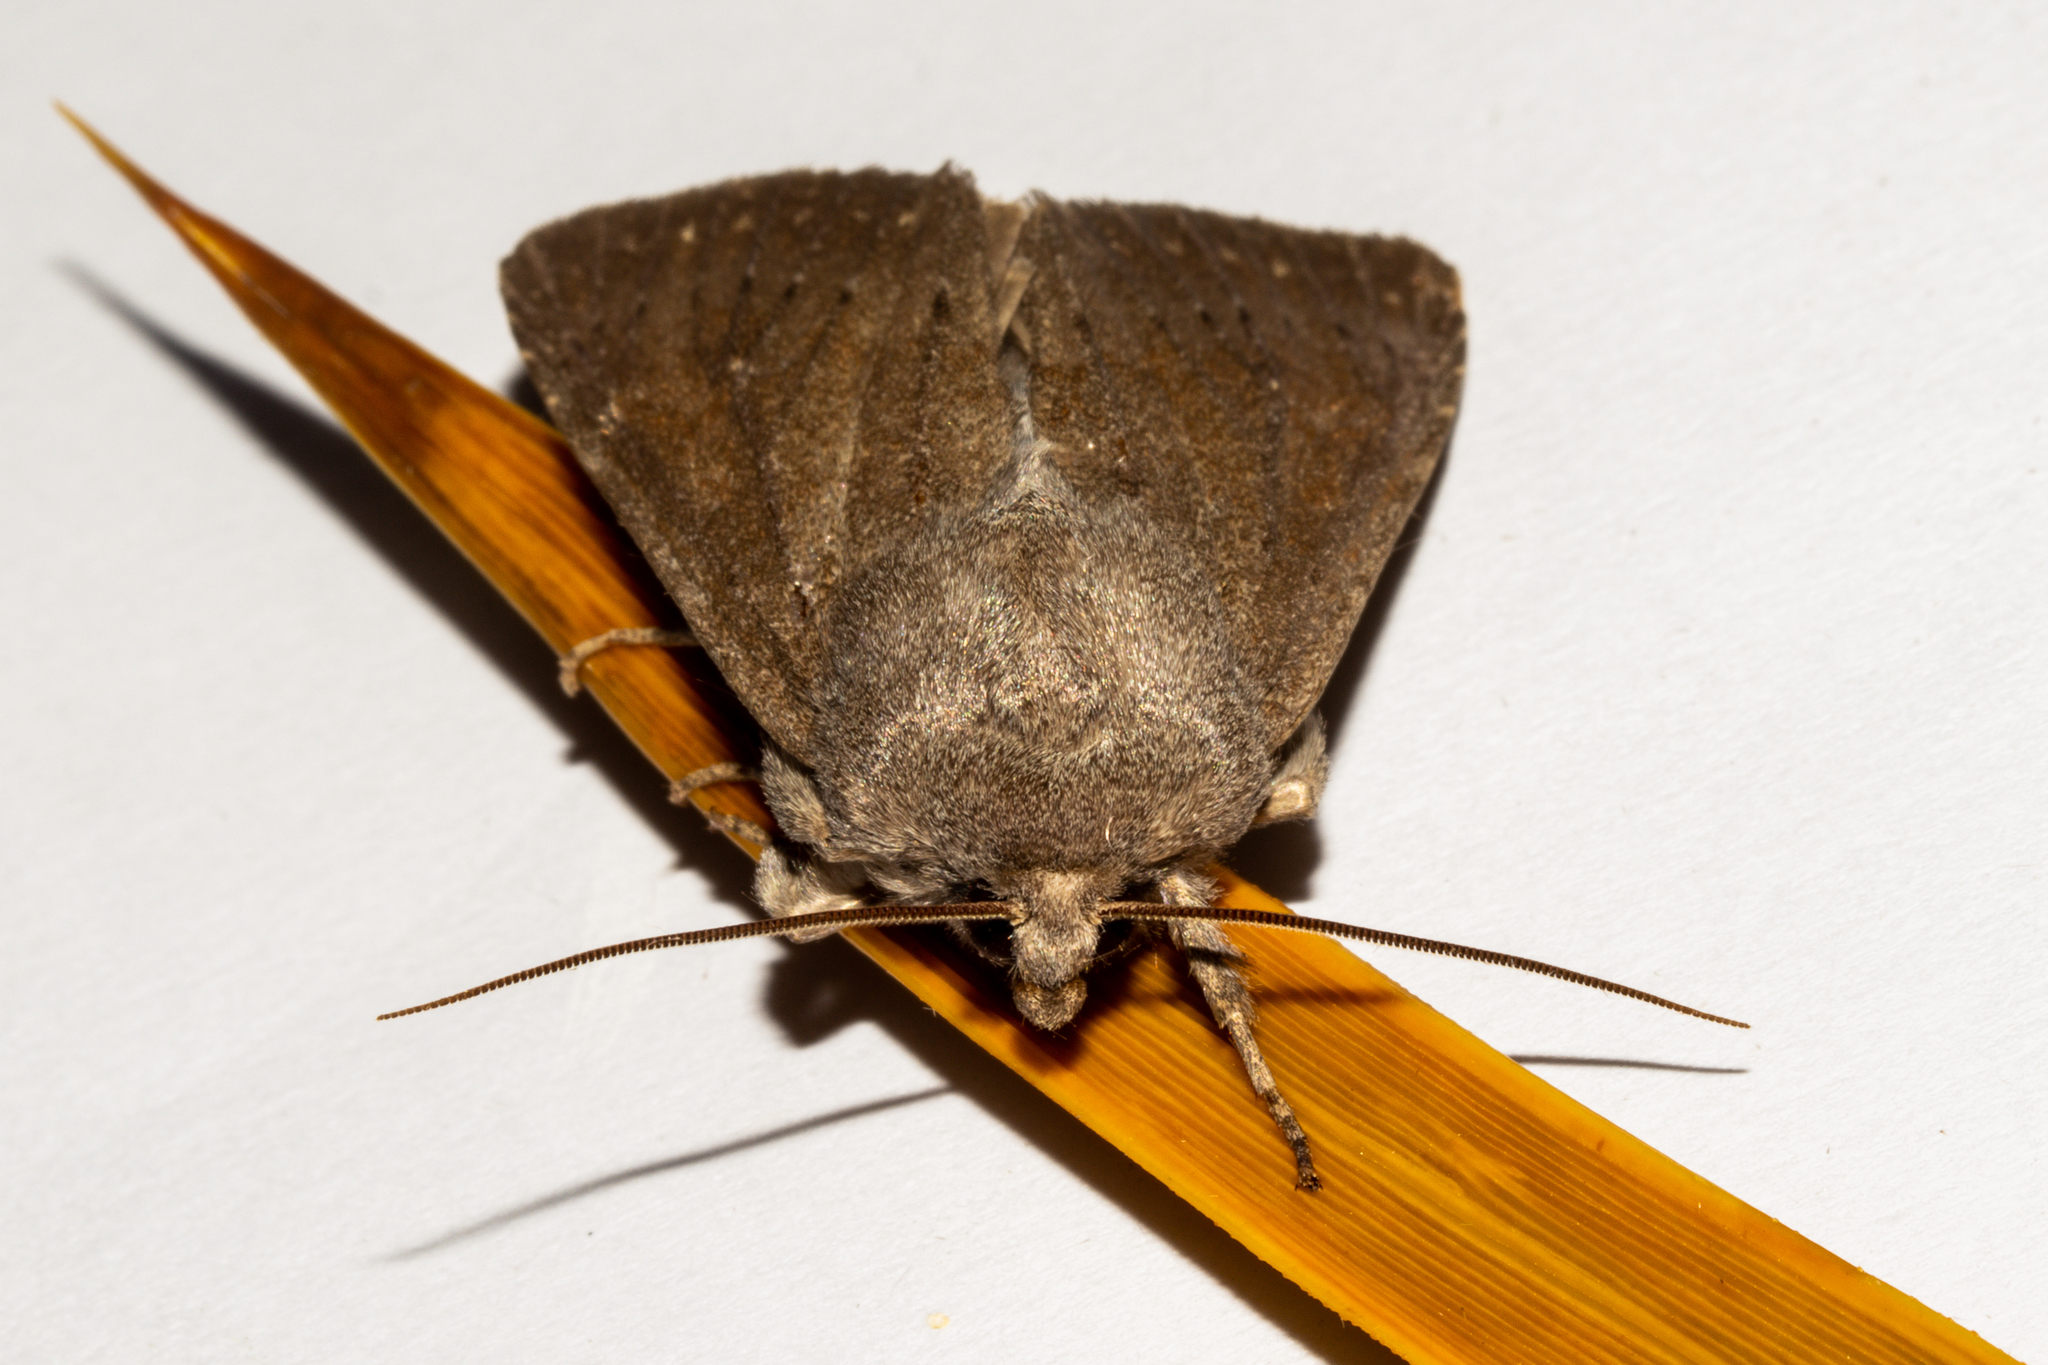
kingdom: Animalia
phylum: Arthropoda
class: Insecta
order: Lepidoptera
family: Noctuidae
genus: Ichneutica
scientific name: Ichneutica nullifera
